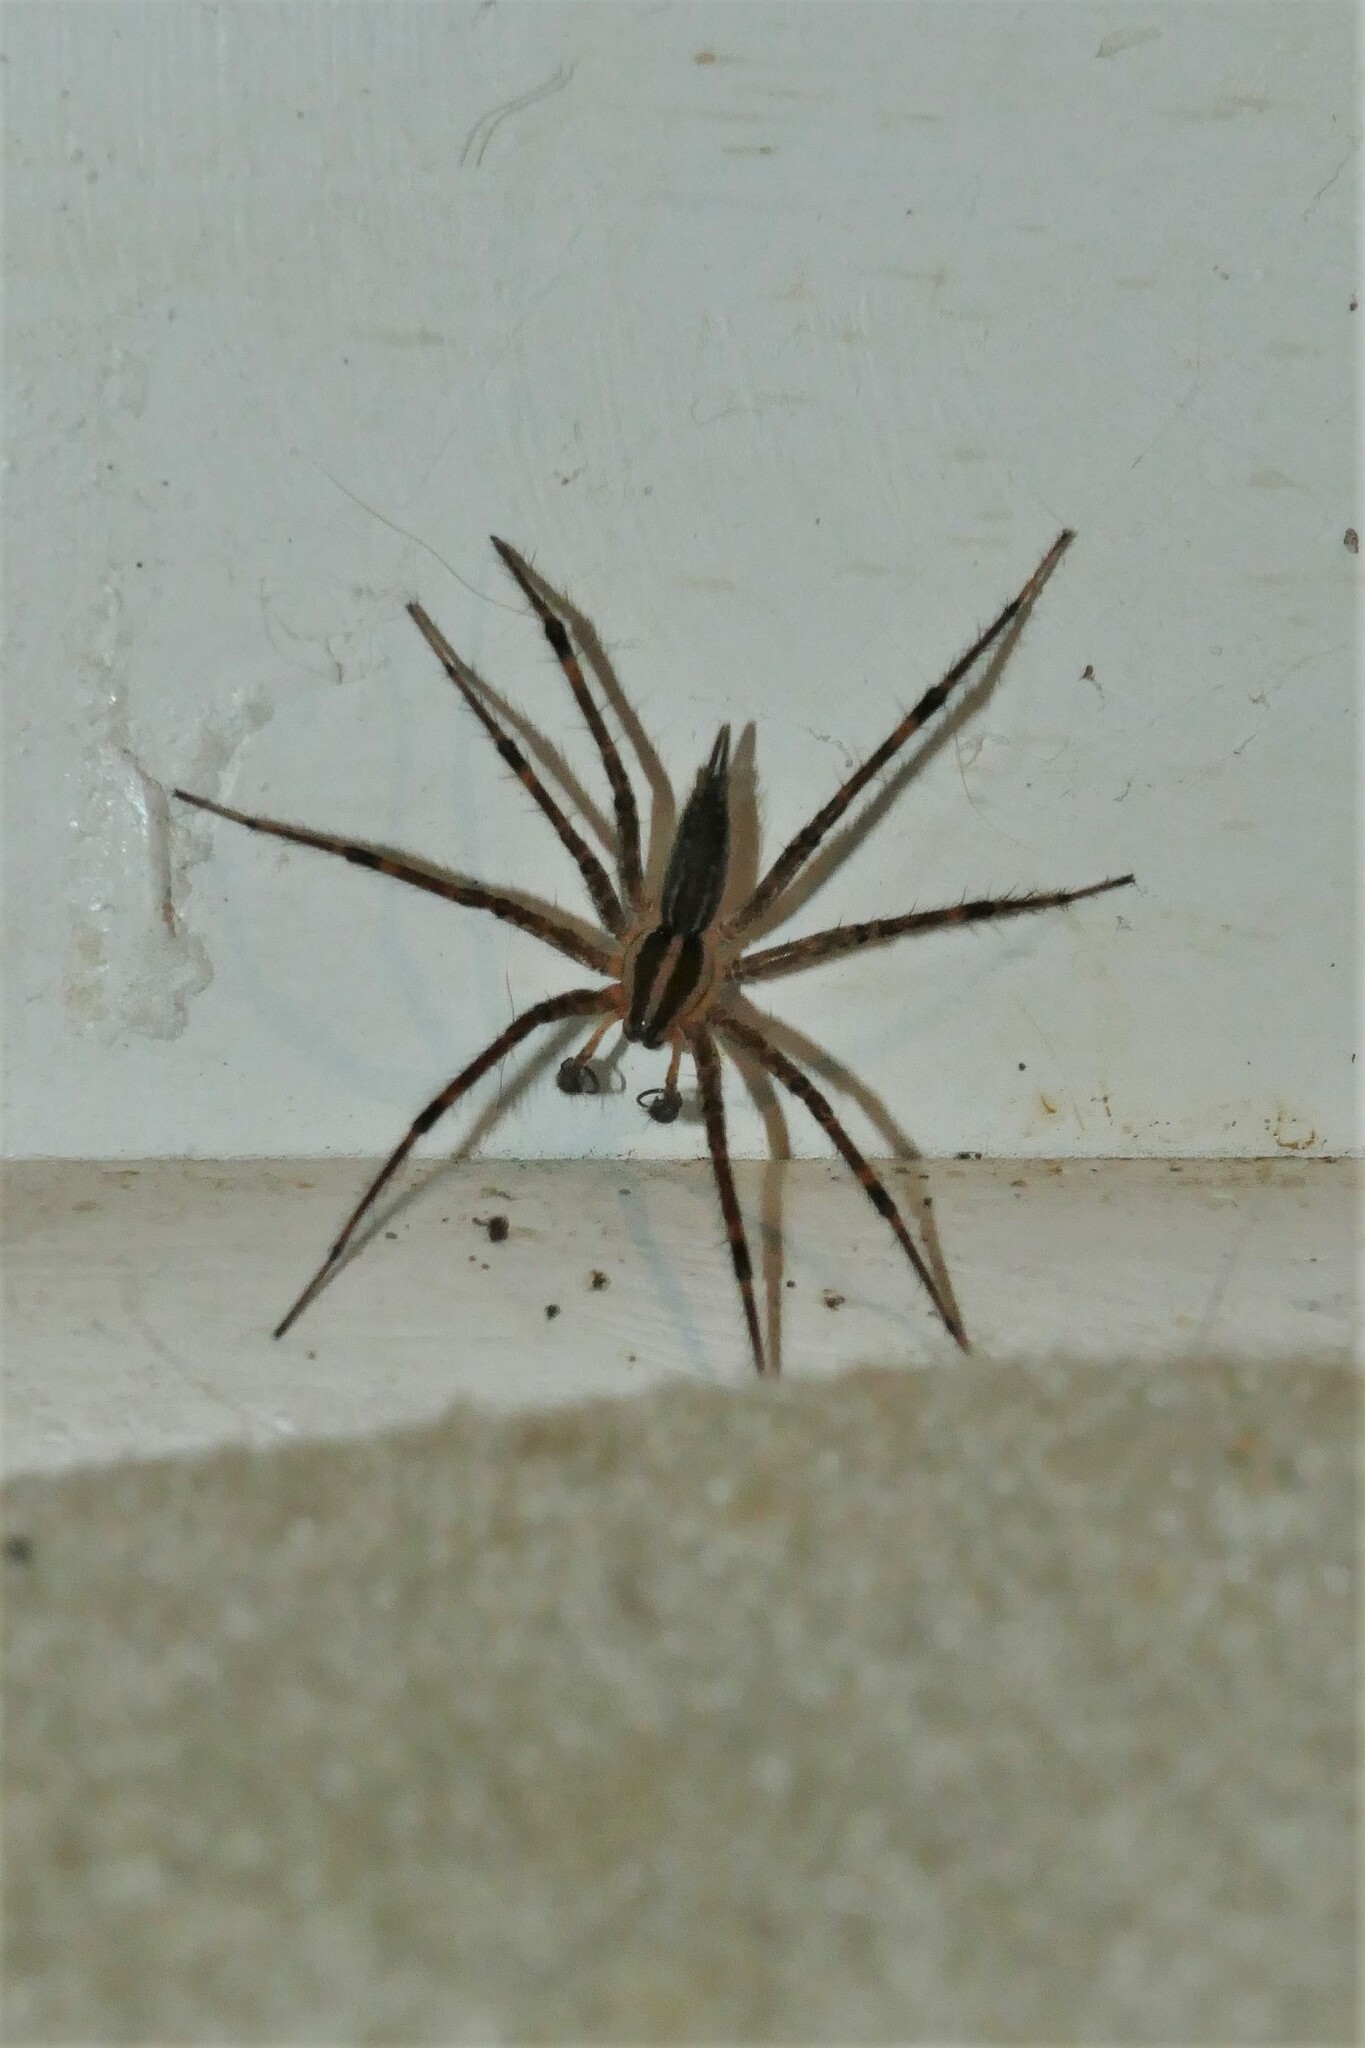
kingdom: Animalia
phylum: Arthropoda
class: Arachnida
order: Araneae
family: Agelenidae
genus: Agelenopsis
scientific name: Agelenopsis
